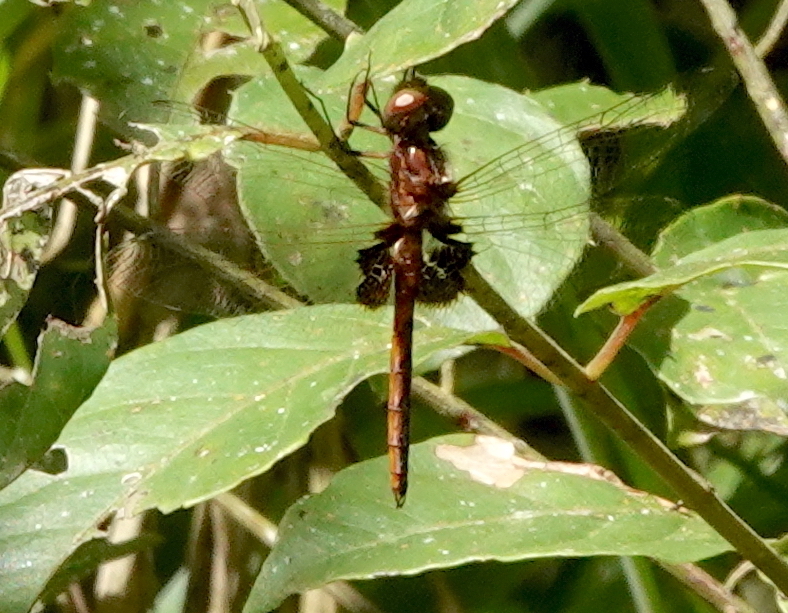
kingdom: Animalia
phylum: Arthropoda
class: Insecta
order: Odonata
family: Libellulidae
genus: Miathyria
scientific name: Miathyria simplex
